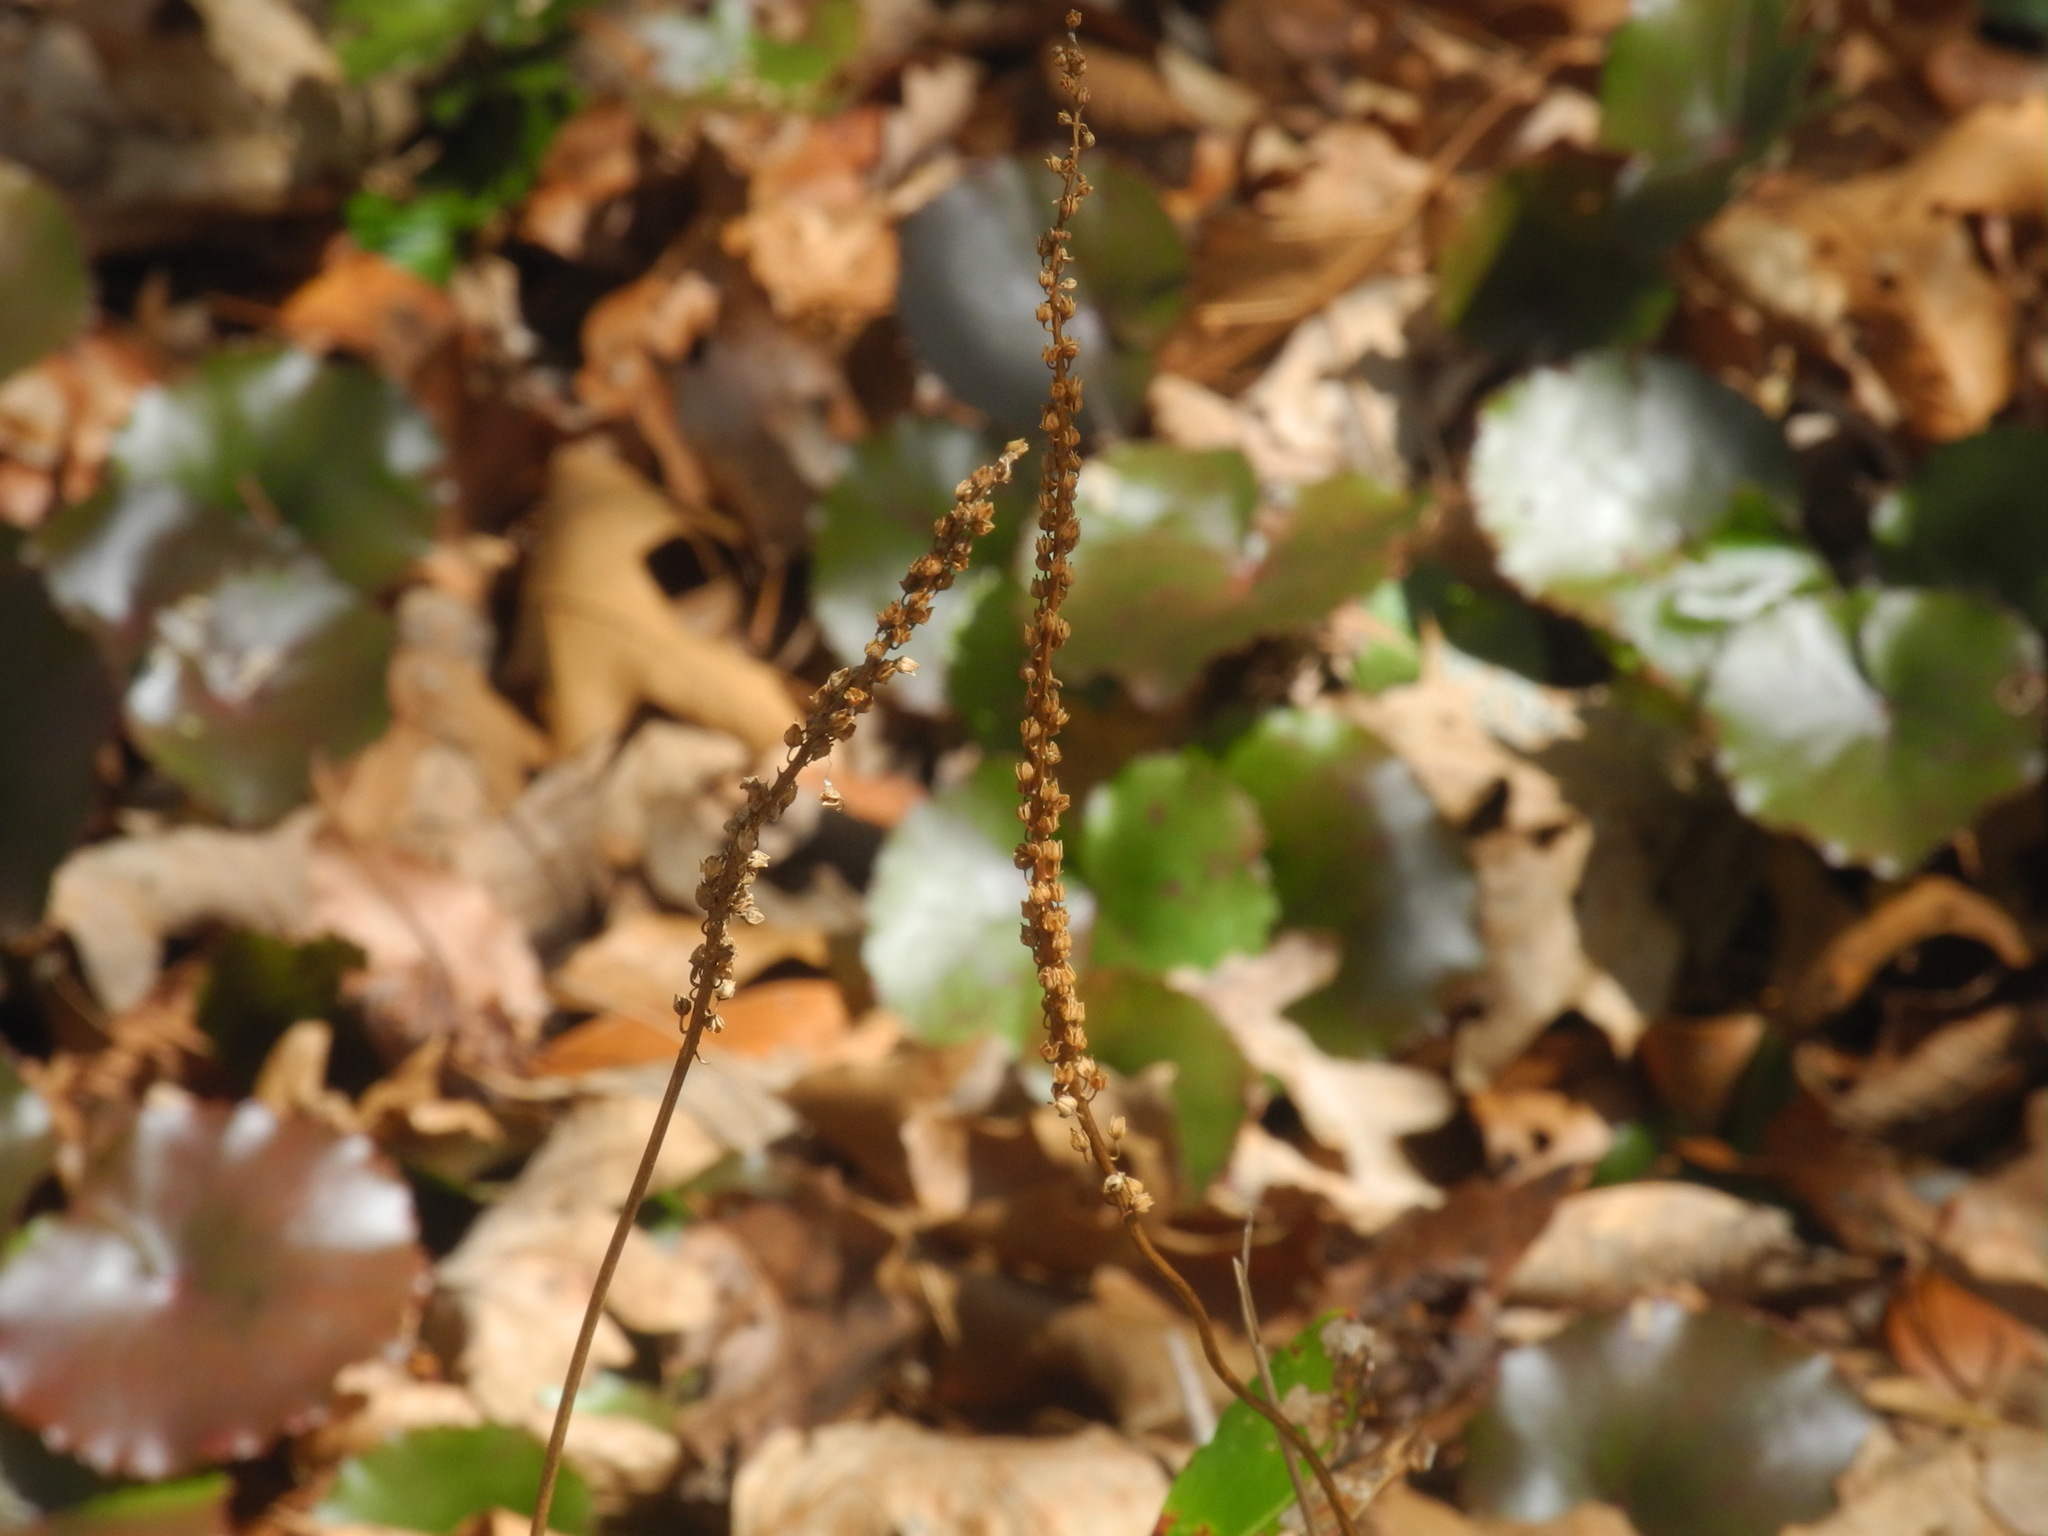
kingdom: Plantae
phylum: Tracheophyta
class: Magnoliopsida
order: Ericales
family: Diapensiaceae
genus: Galax
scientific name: Galax urceolata
